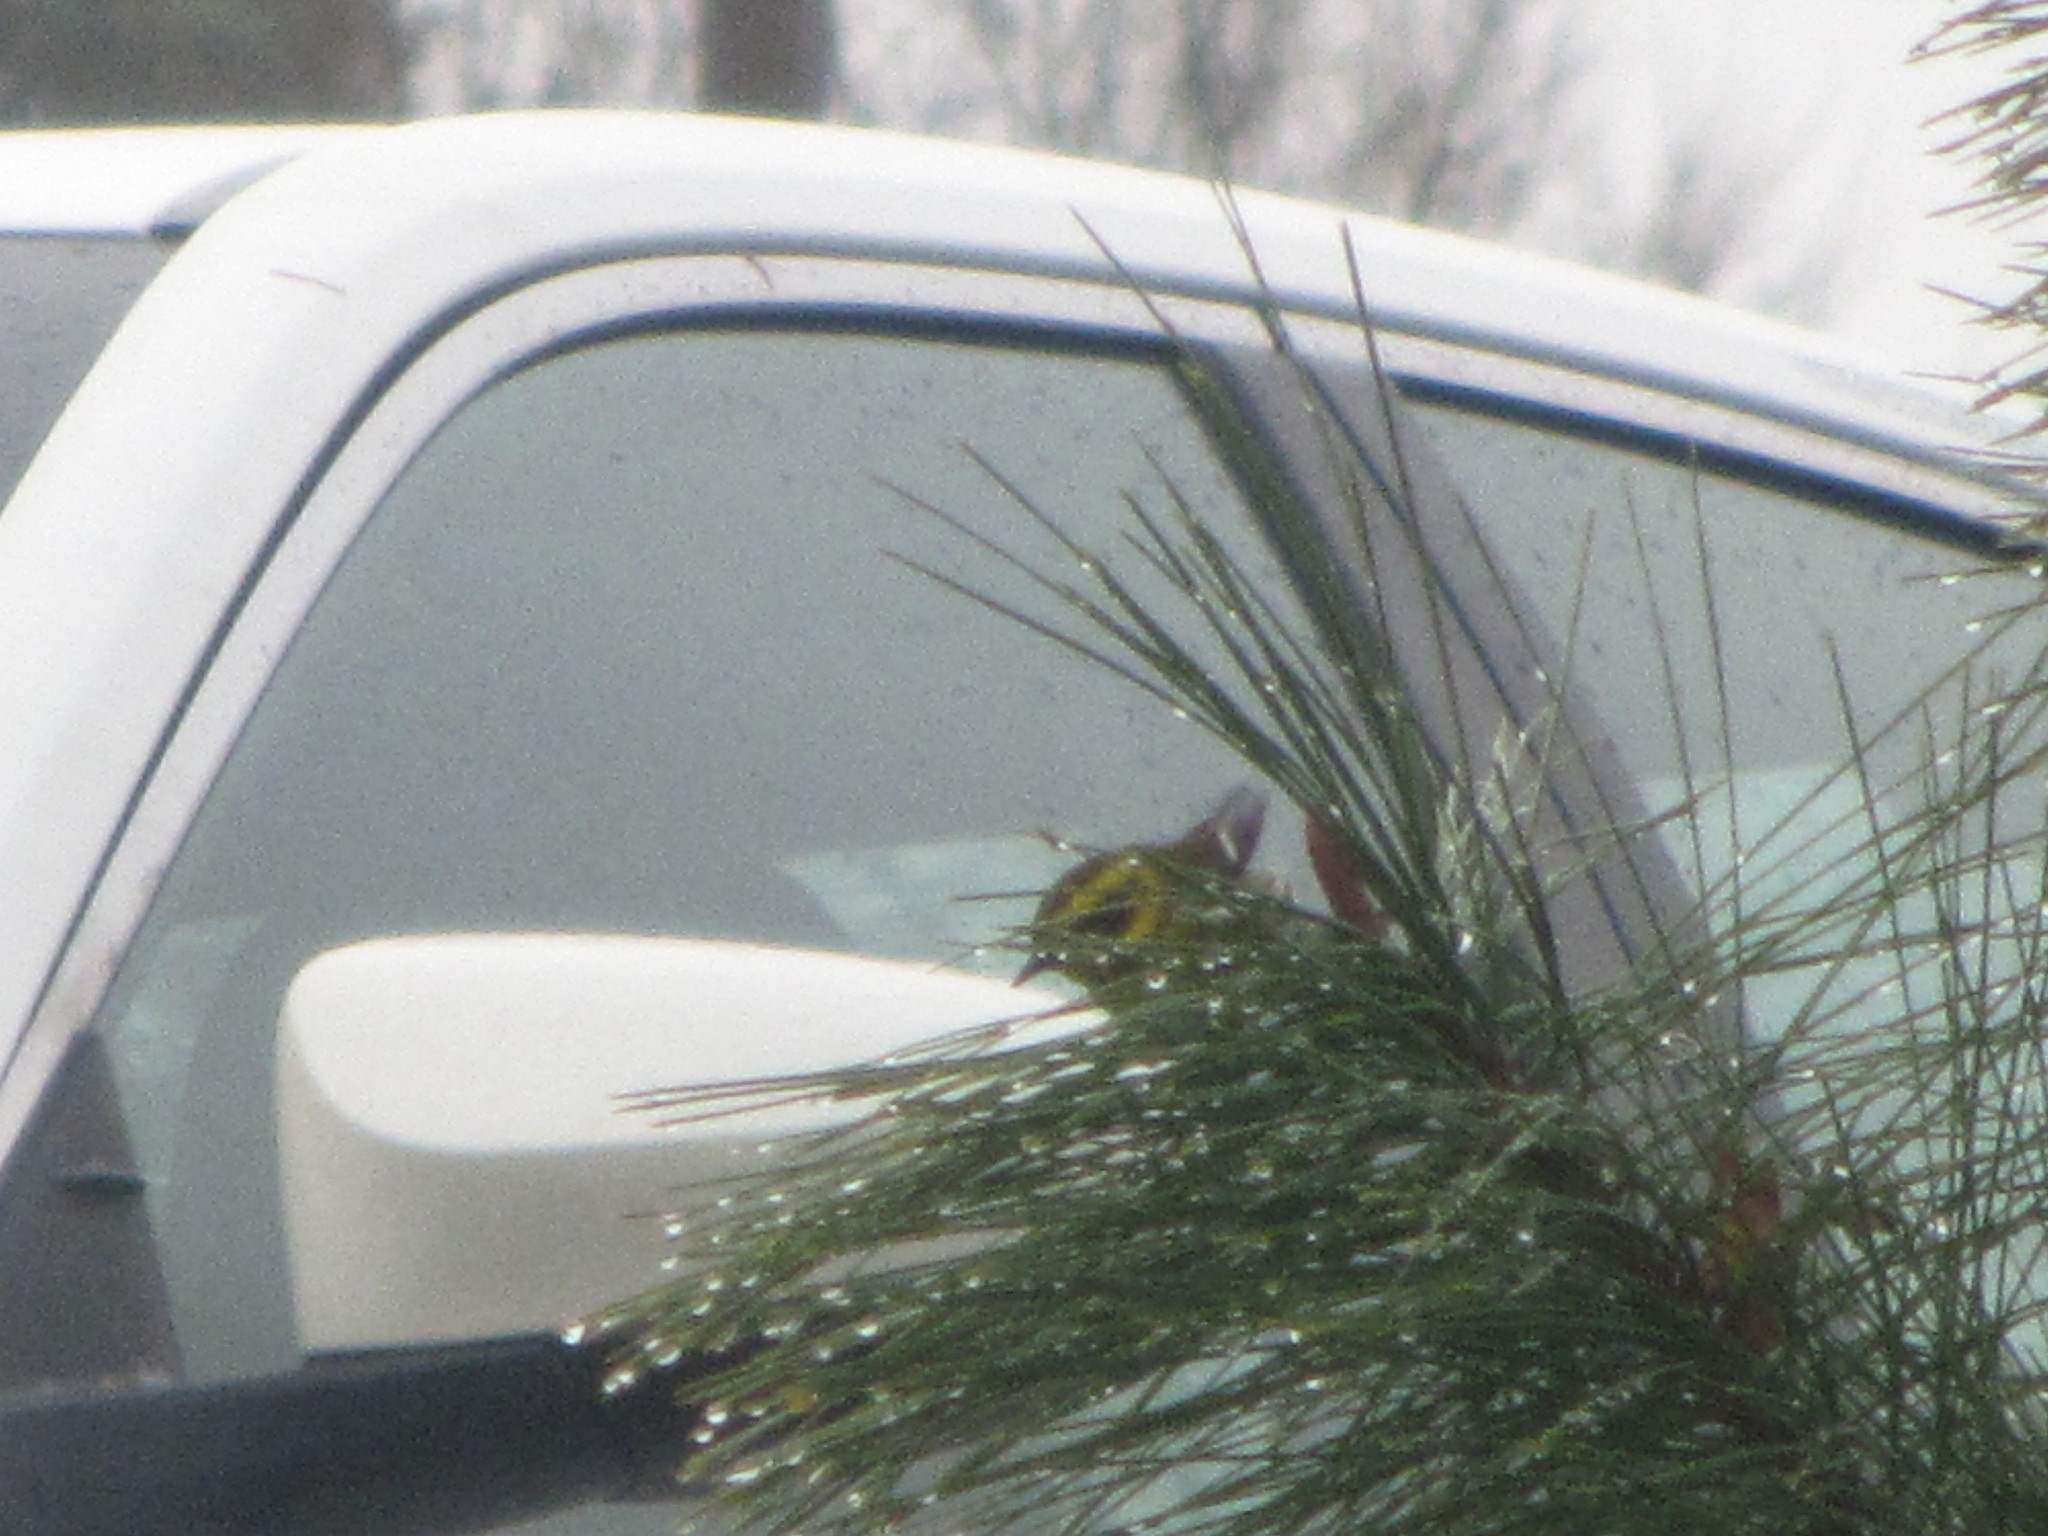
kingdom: Animalia
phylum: Chordata
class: Aves
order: Passeriformes
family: Parulidae
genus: Setophaga
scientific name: Setophaga townsendi
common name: Townsend's warbler
